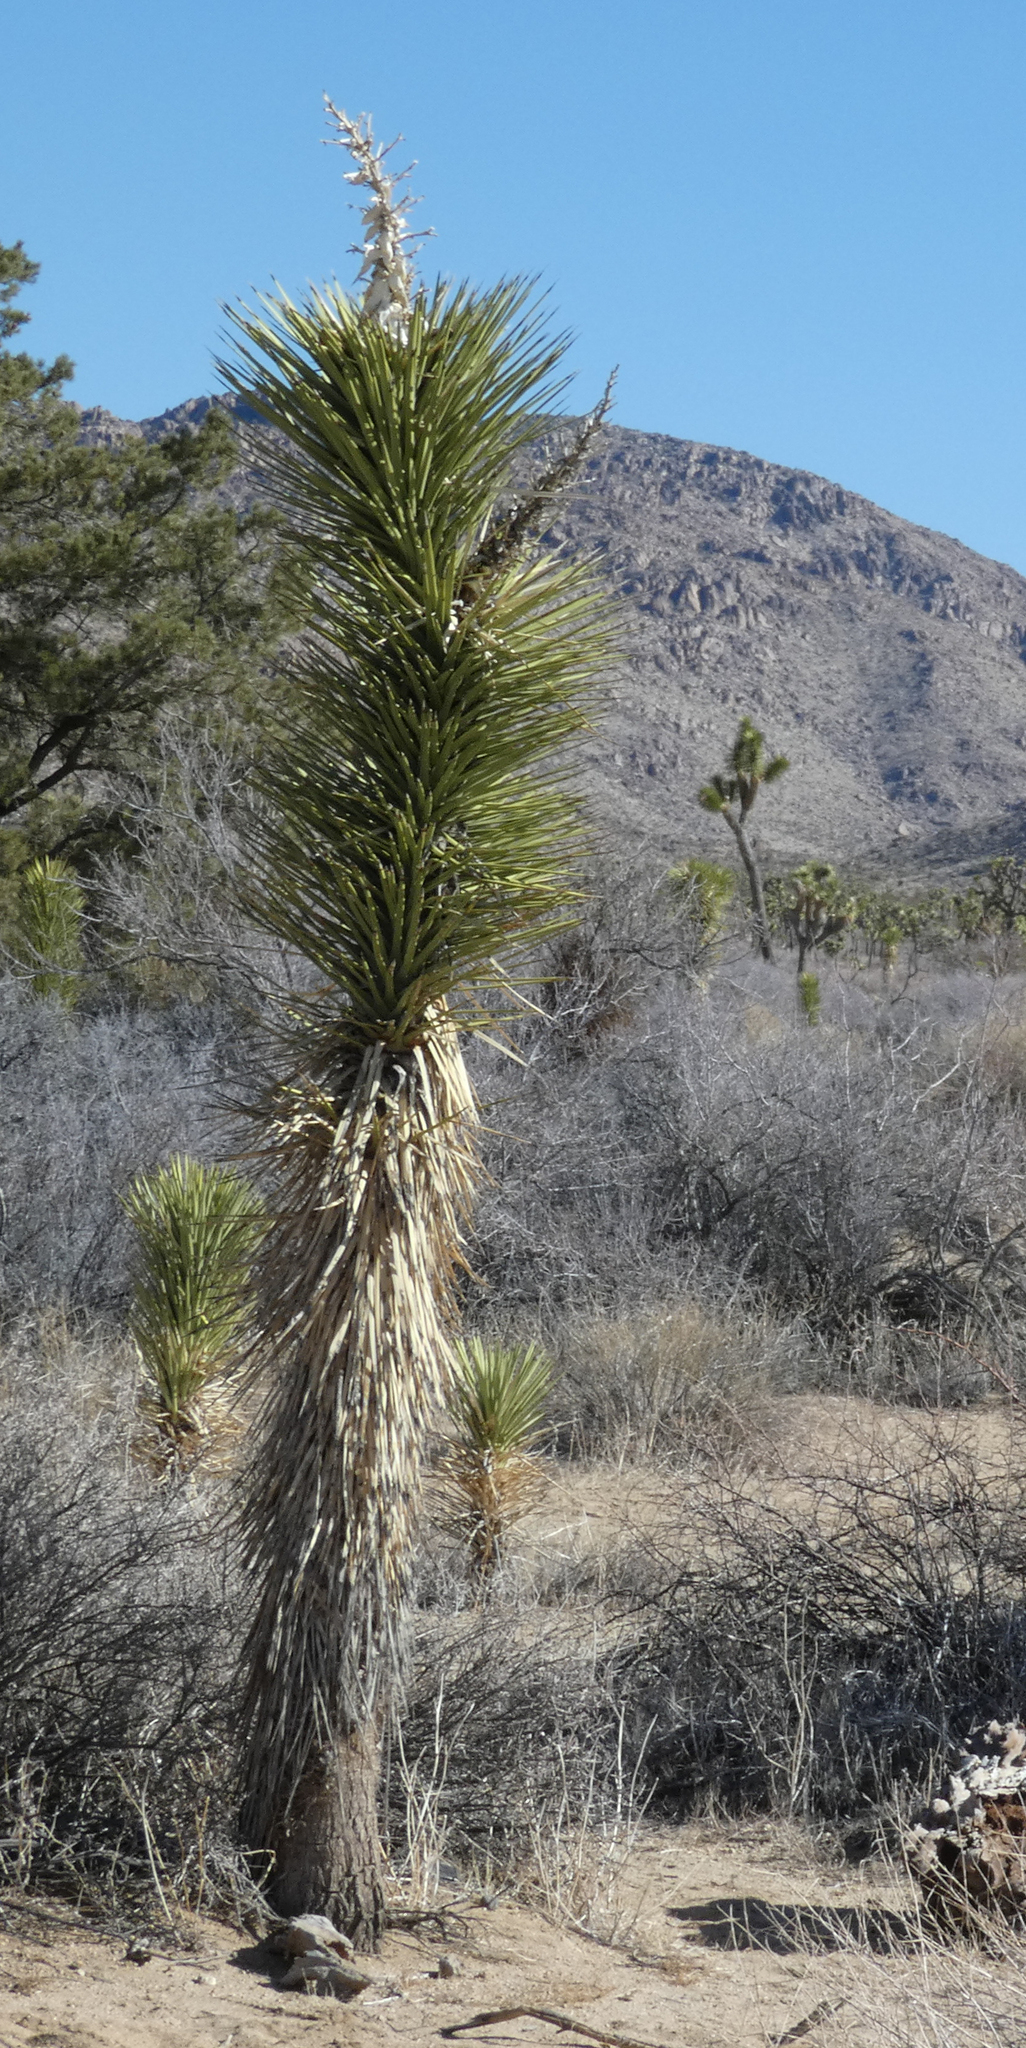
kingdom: Plantae
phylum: Tracheophyta
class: Liliopsida
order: Asparagales
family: Asparagaceae
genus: Yucca
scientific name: Yucca brevifolia
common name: Joshua tree
